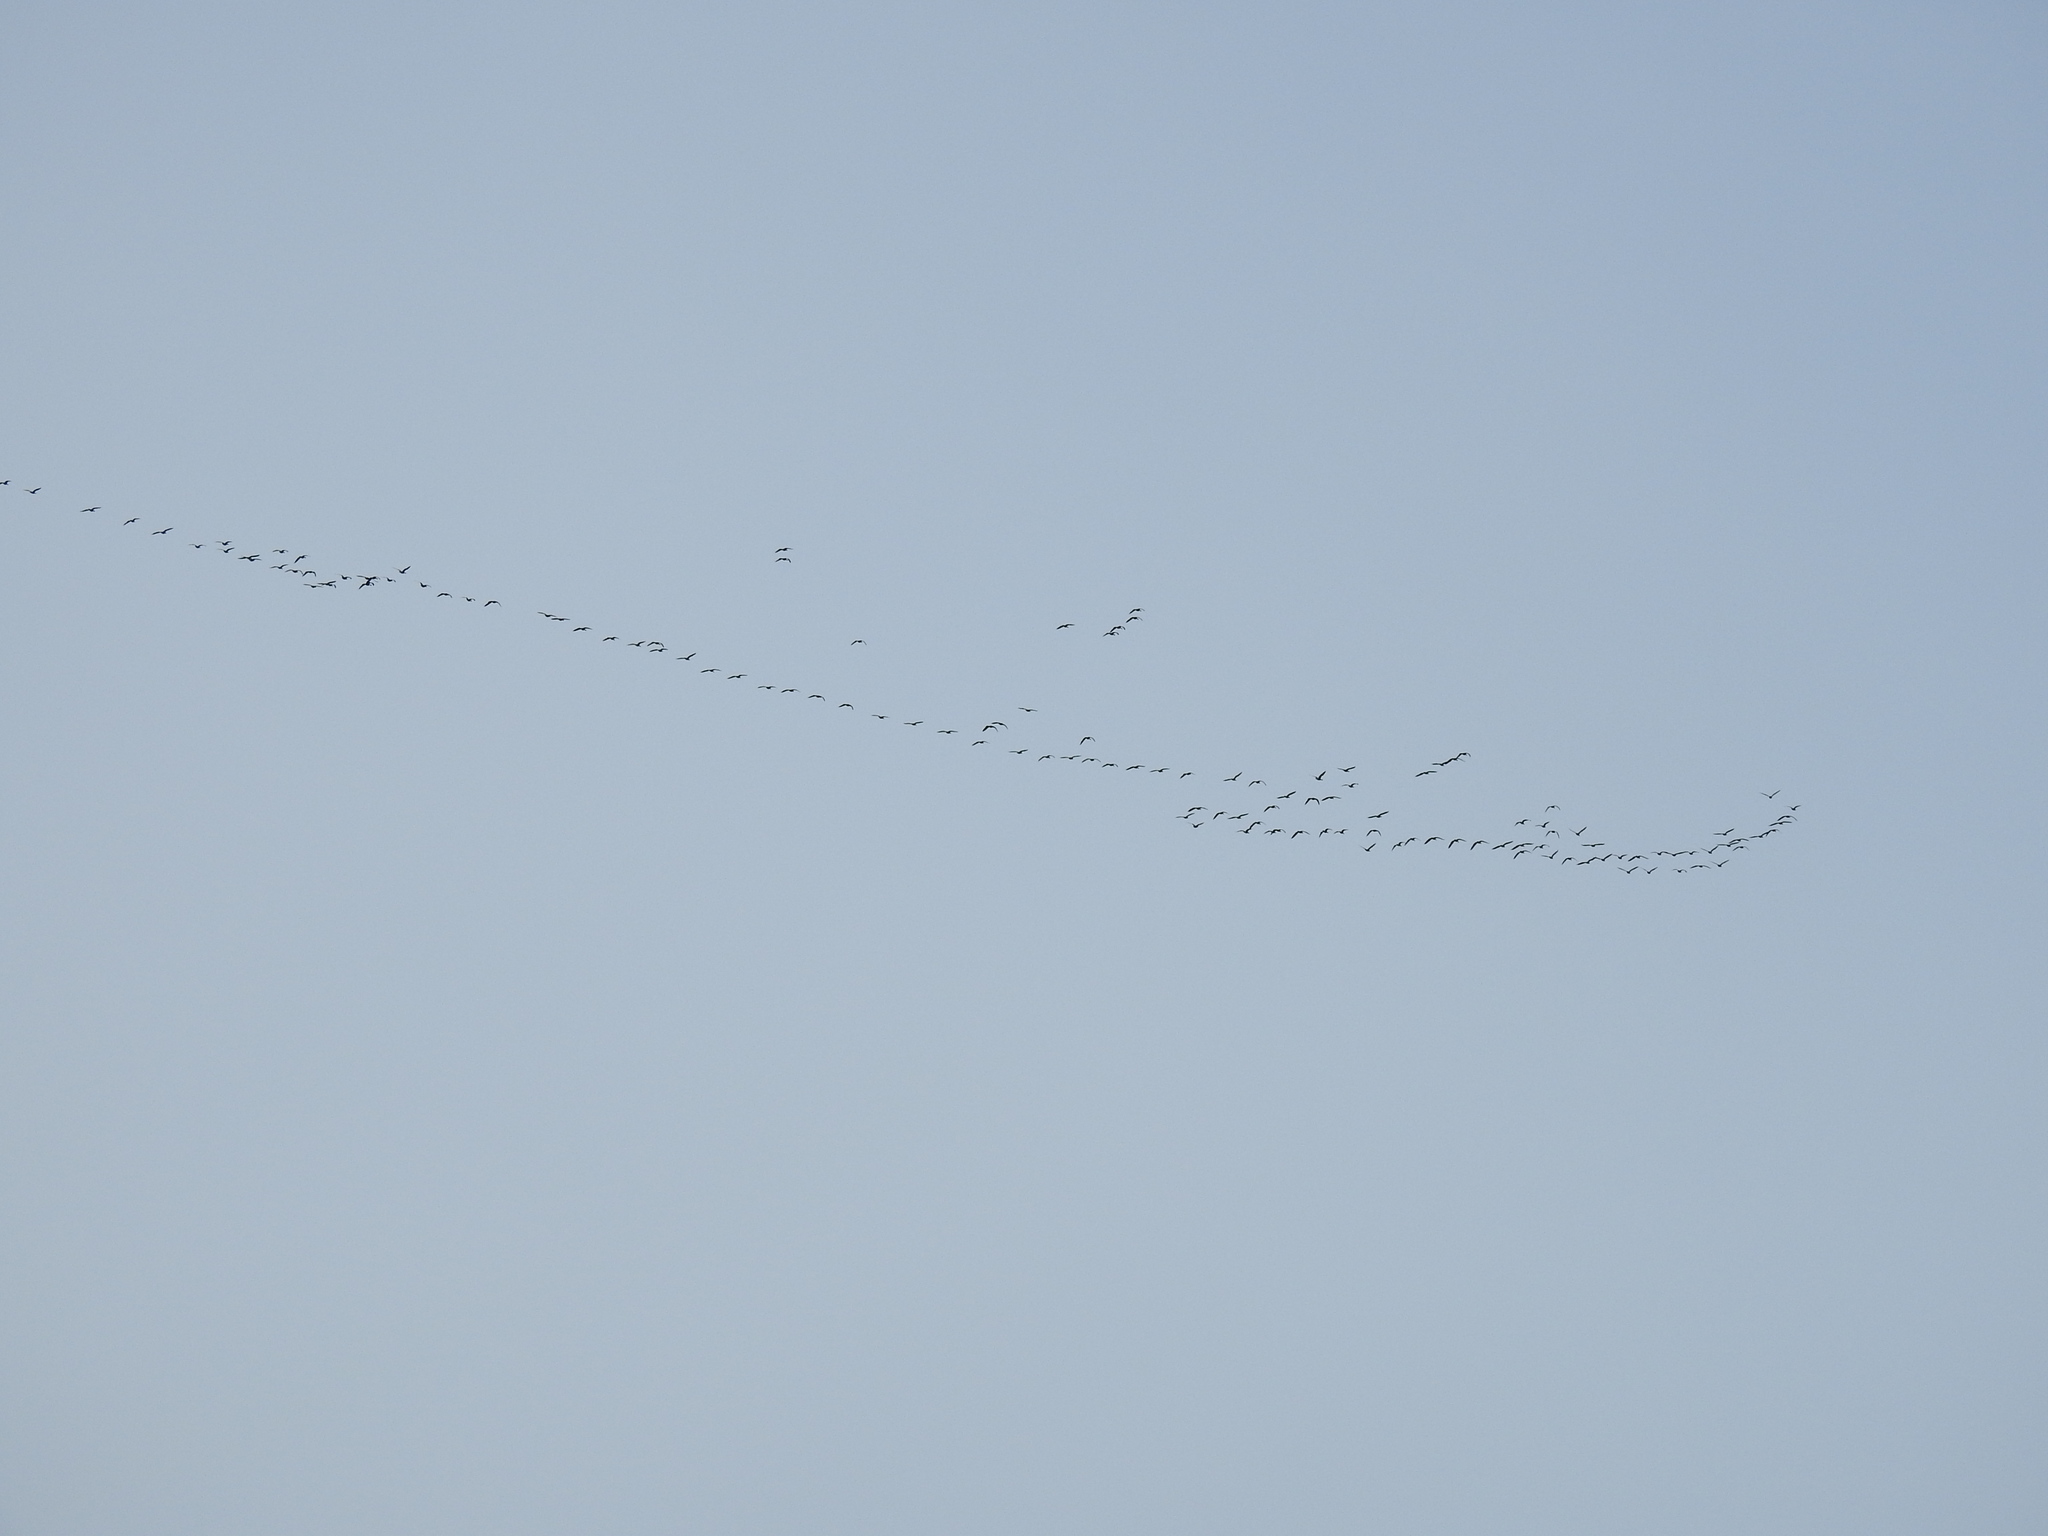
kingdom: Animalia
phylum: Chordata
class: Aves
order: Anseriformes
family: Anatidae
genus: Branta
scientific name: Branta canadensis
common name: Canada goose
